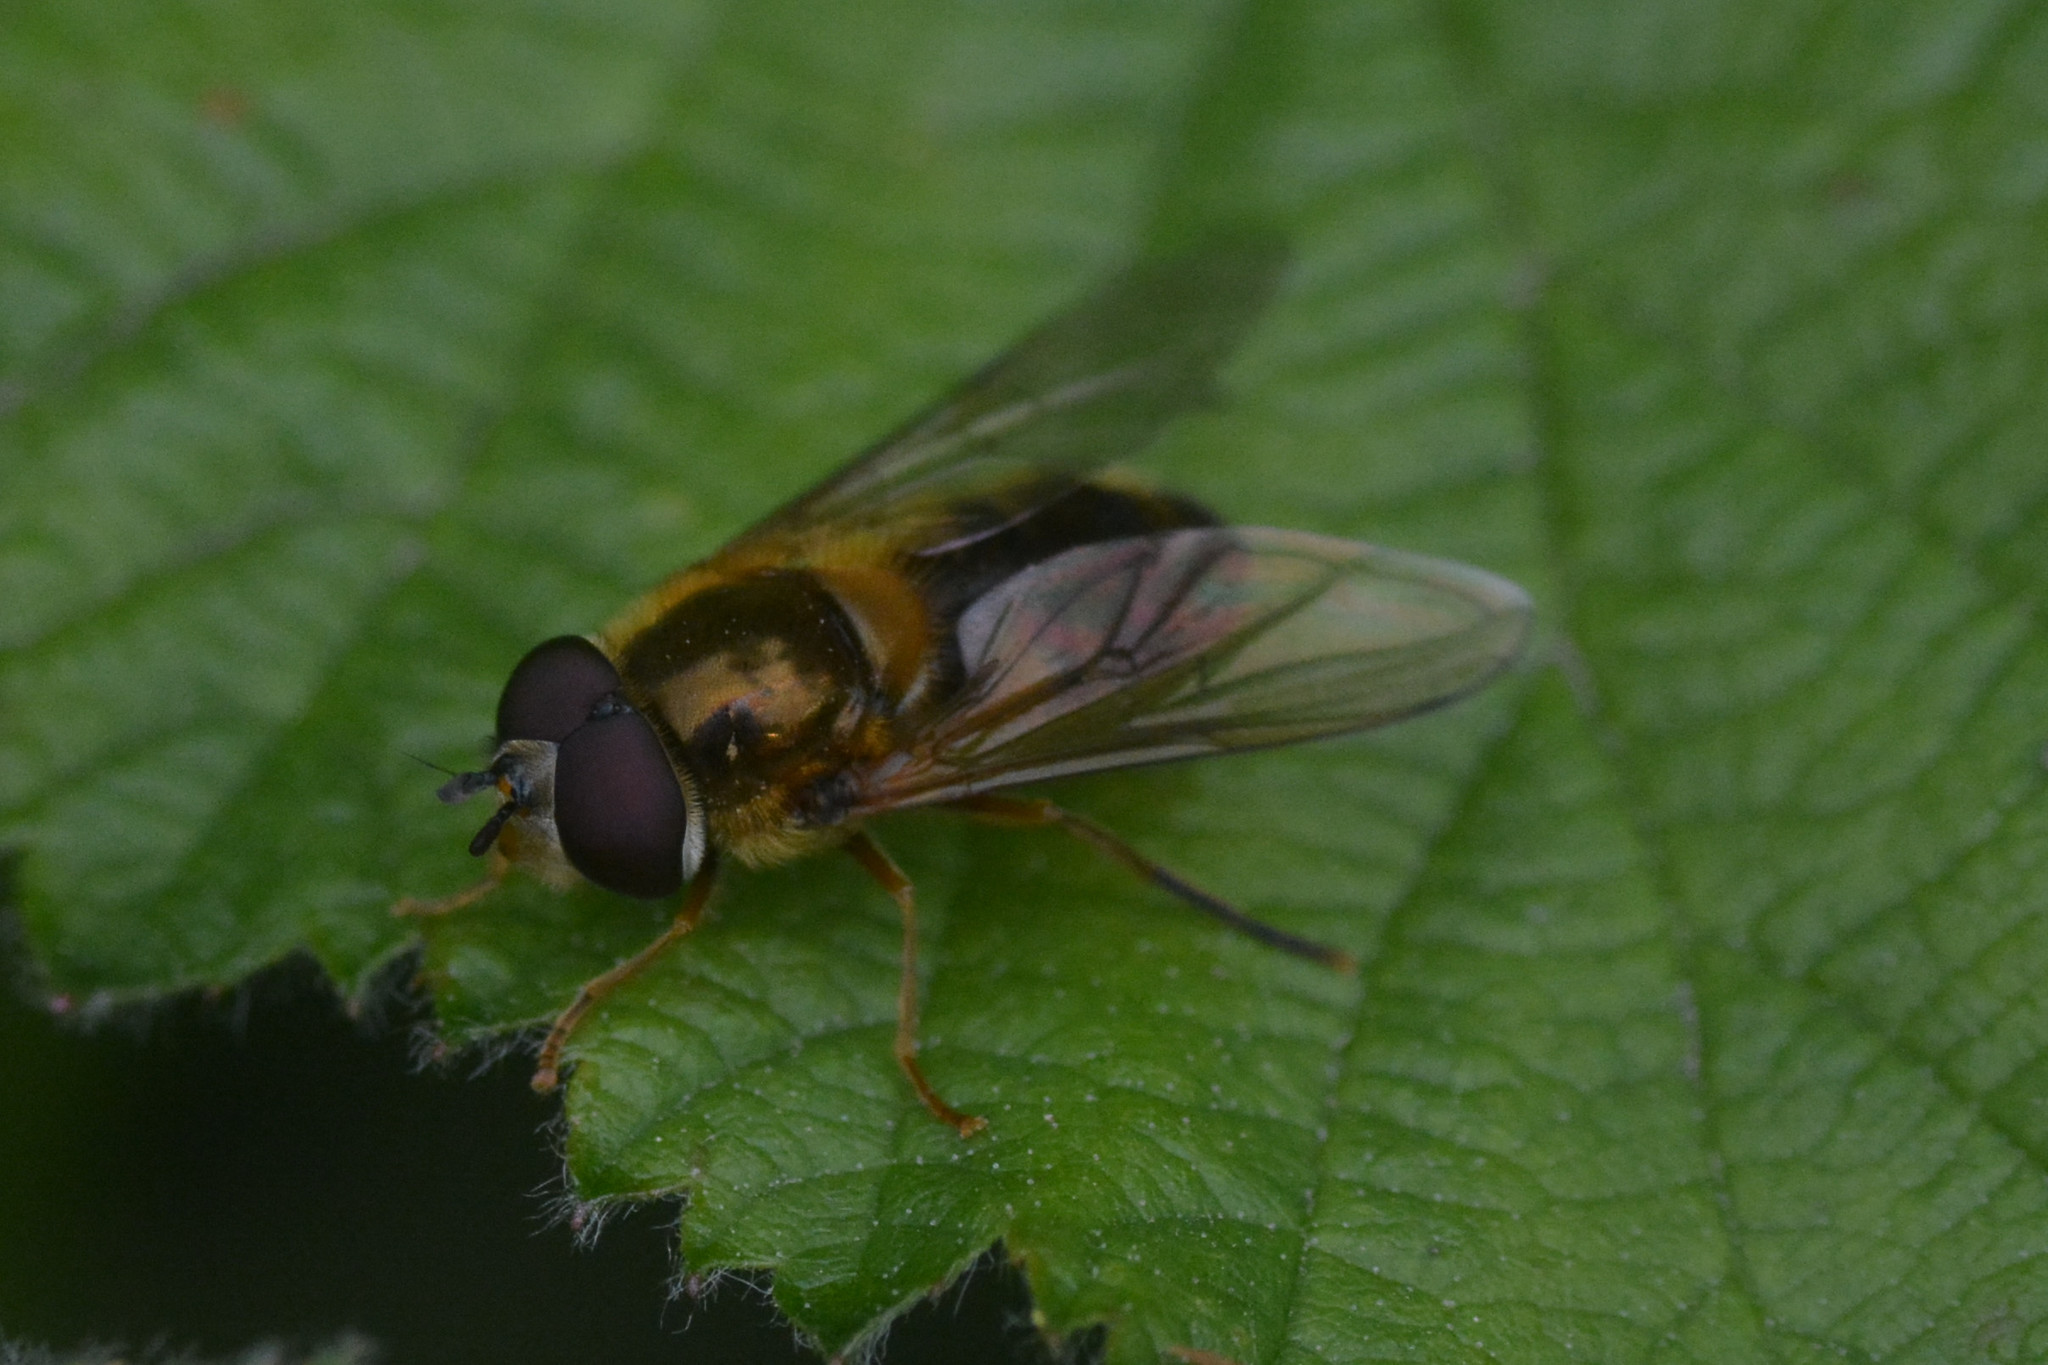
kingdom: Animalia
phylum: Arthropoda
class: Insecta
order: Diptera
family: Syrphidae
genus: Epistrophe
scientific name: Epistrophe eligans
